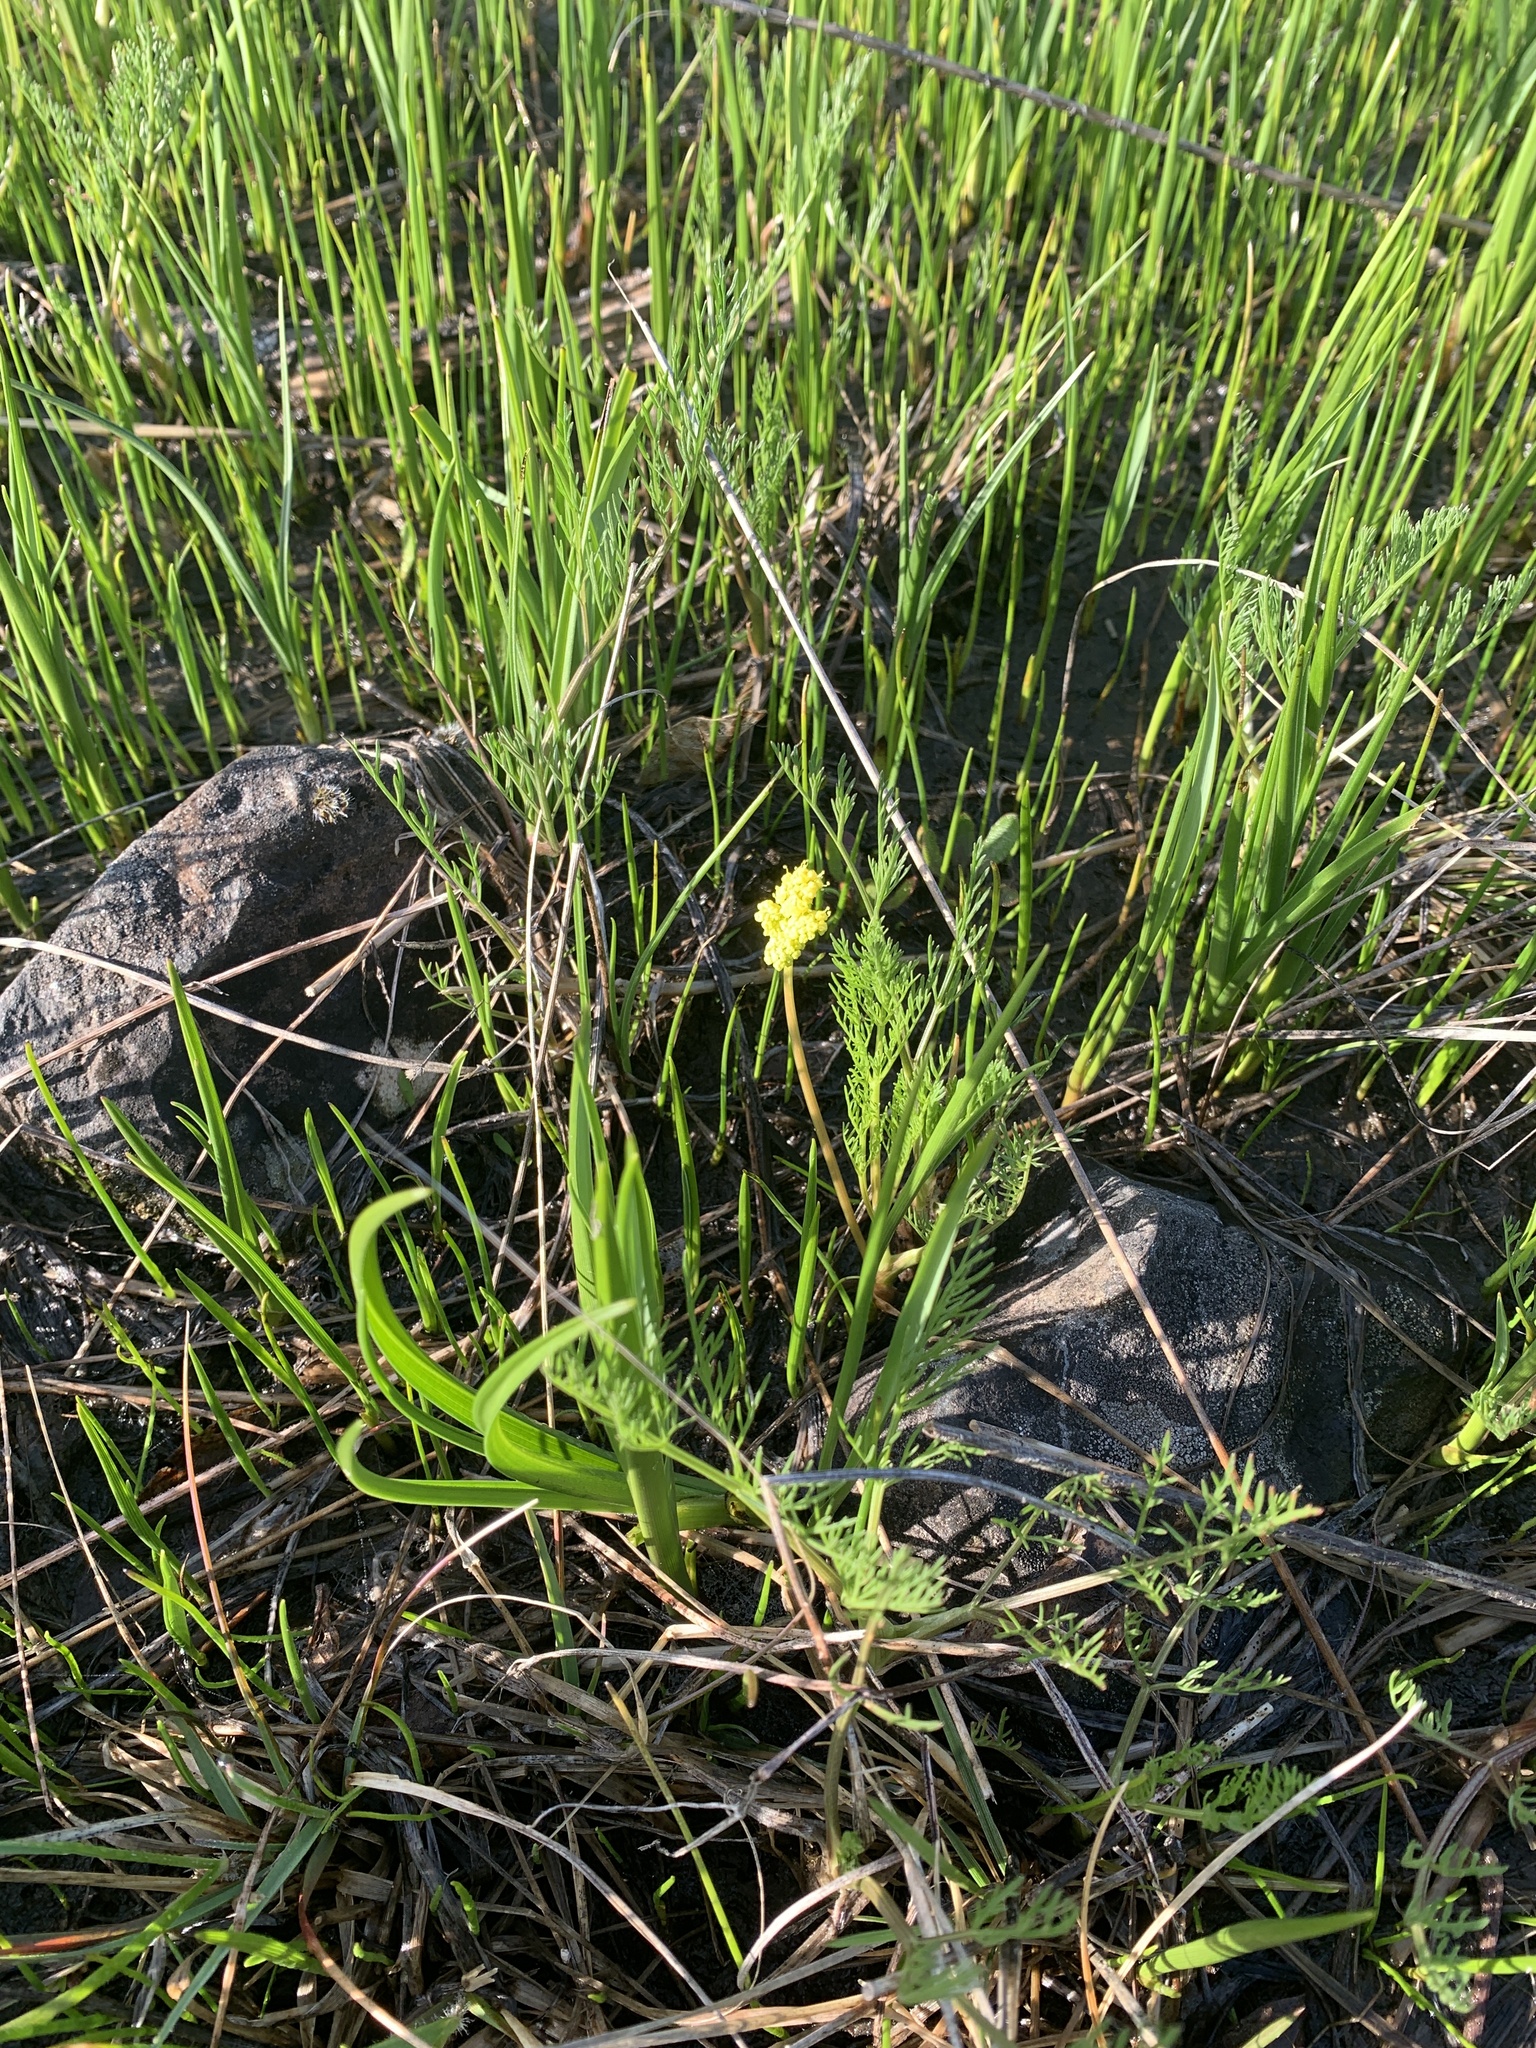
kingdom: Plantae
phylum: Tracheophyta
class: Magnoliopsida
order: Apiales
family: Apiaceae
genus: Lomatium
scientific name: Lomatium bradshawii
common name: Bradshaw's desert-parsley
